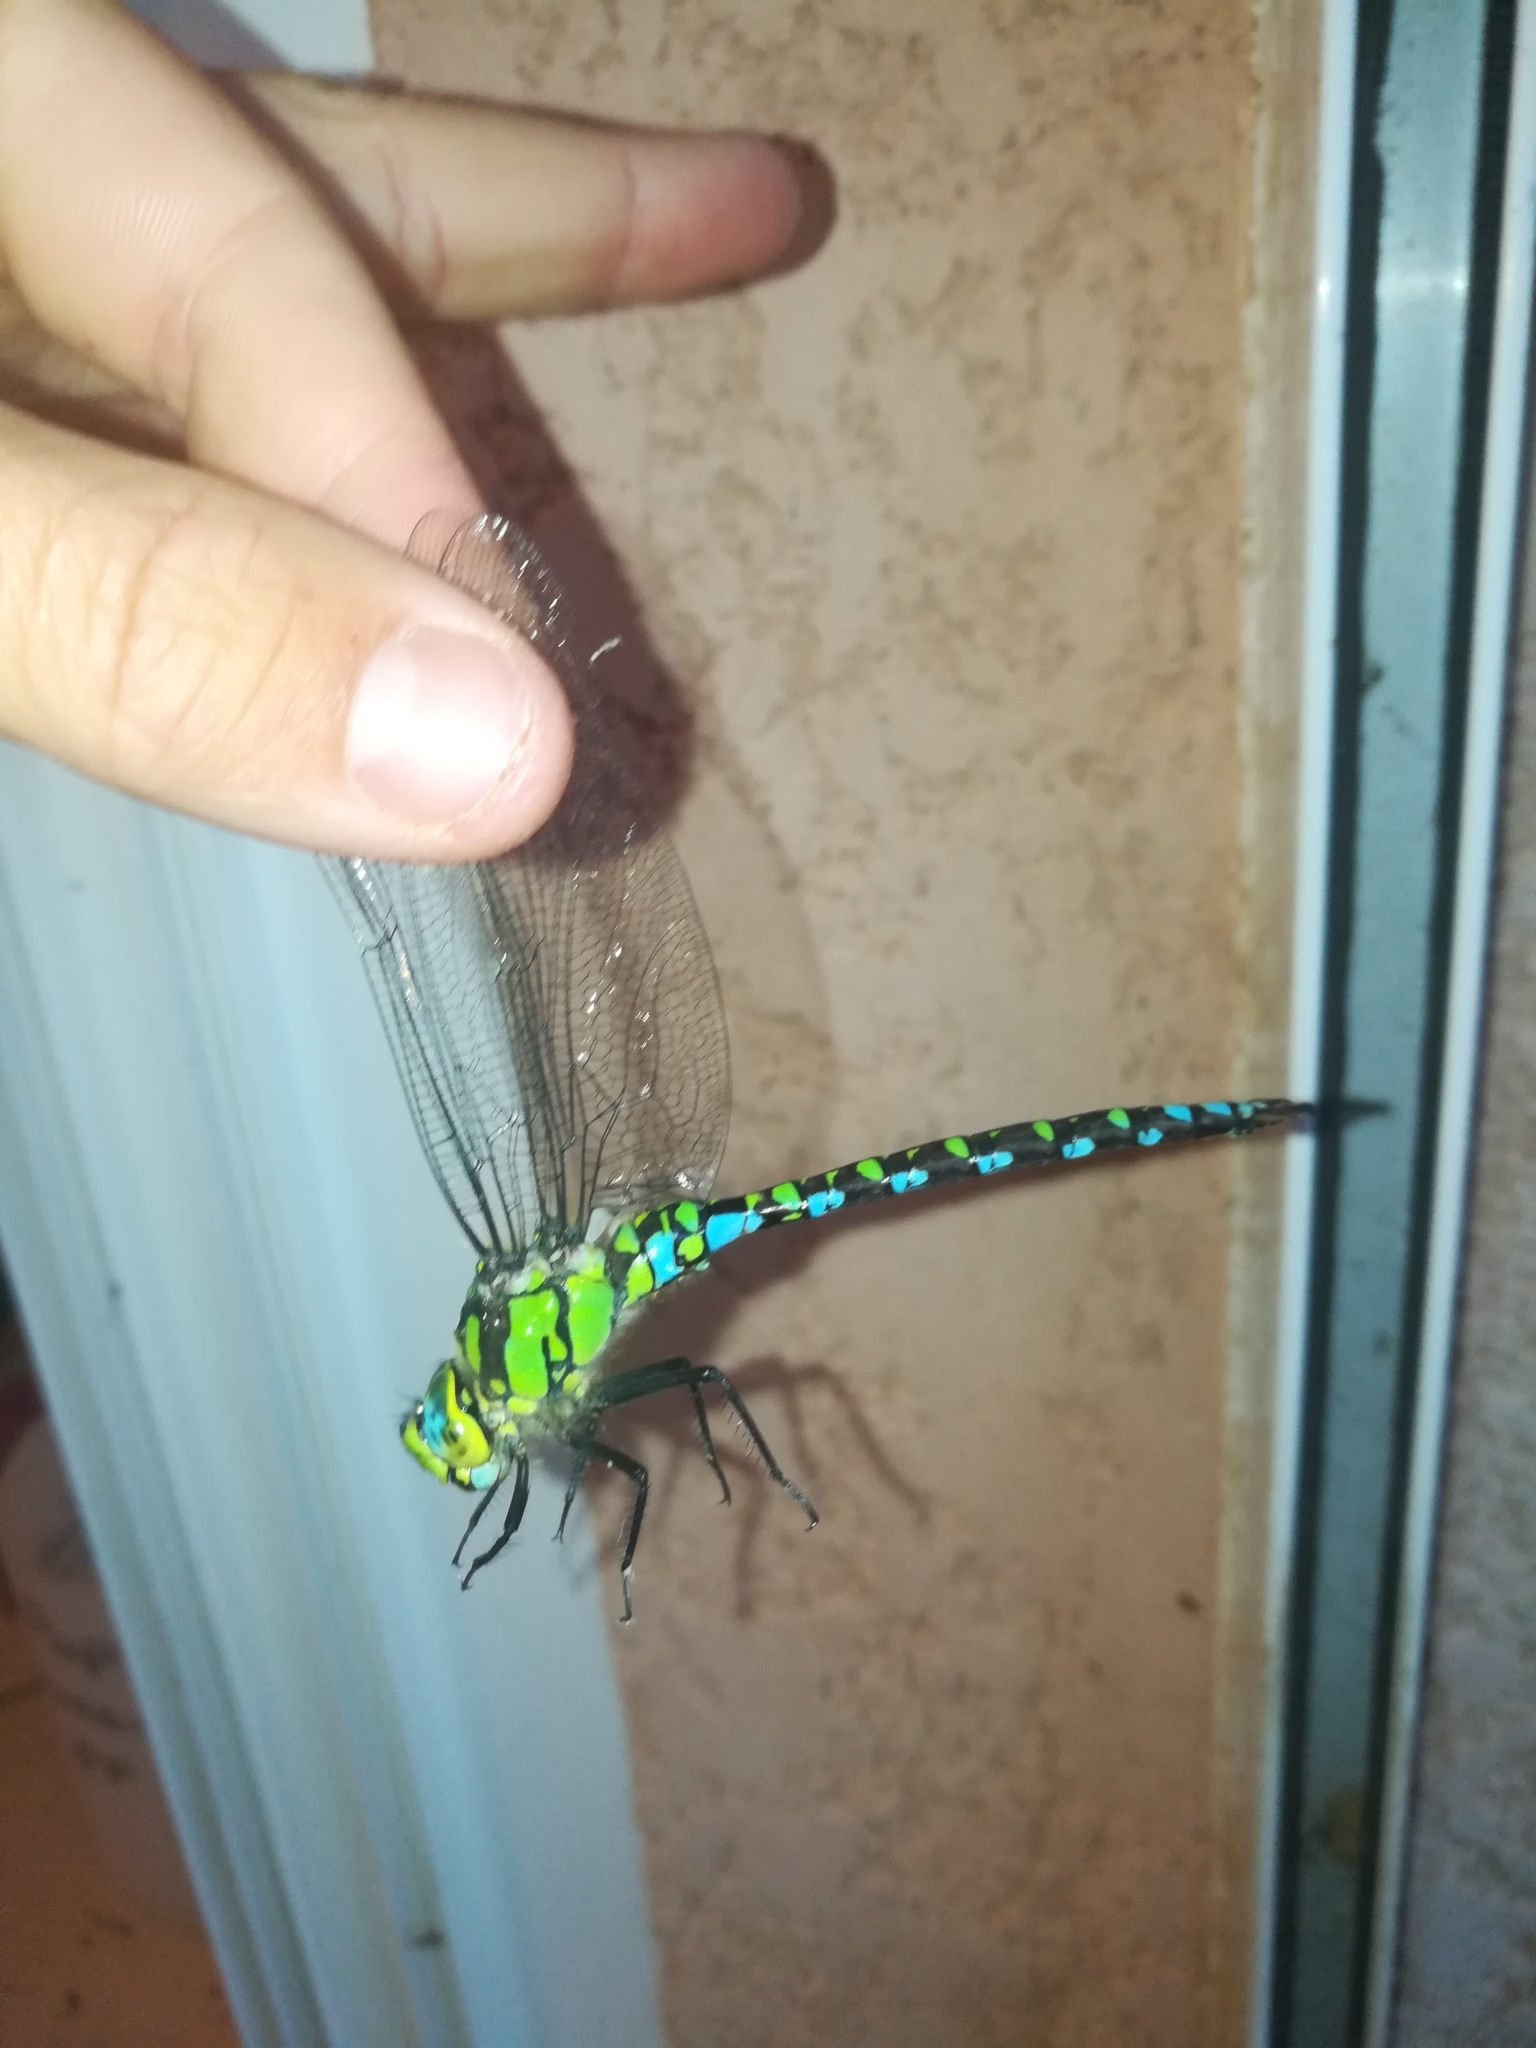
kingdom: Animalia
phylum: Arthropoda
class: Insecta
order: Odonata
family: Aeshnidae
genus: Aeshna
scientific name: Aeshna cyanea
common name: Southern hawker
